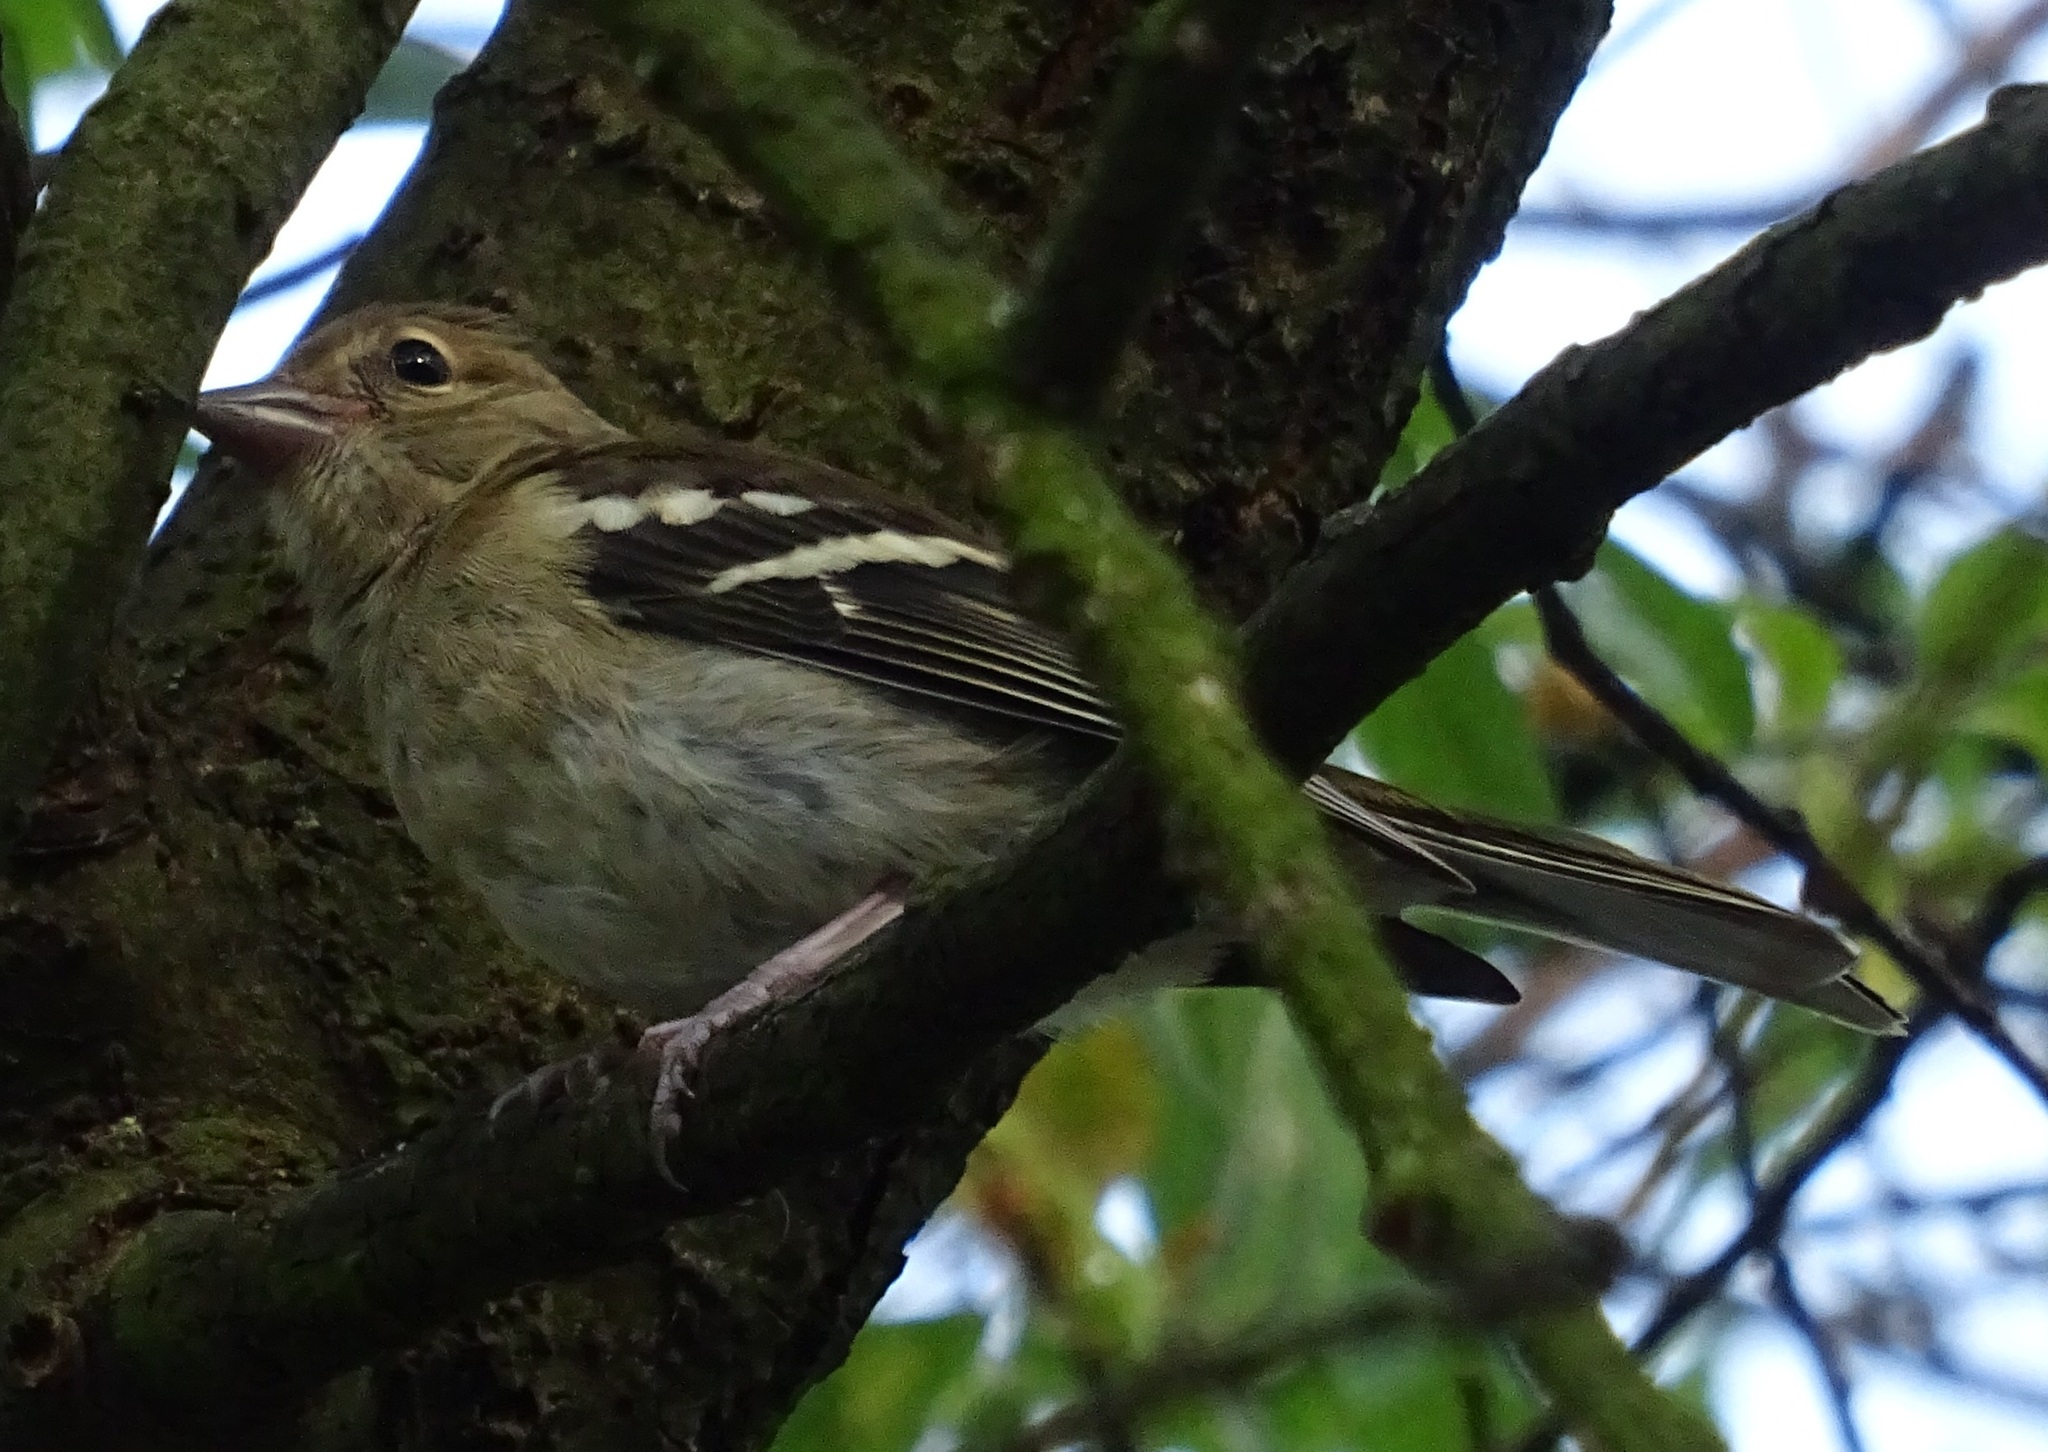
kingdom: Animalia
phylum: Chordata
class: Aves
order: Passeriformes
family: Fringillidae
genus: Fringilla
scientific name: Fringilla coelebs
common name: Common chaffinch
